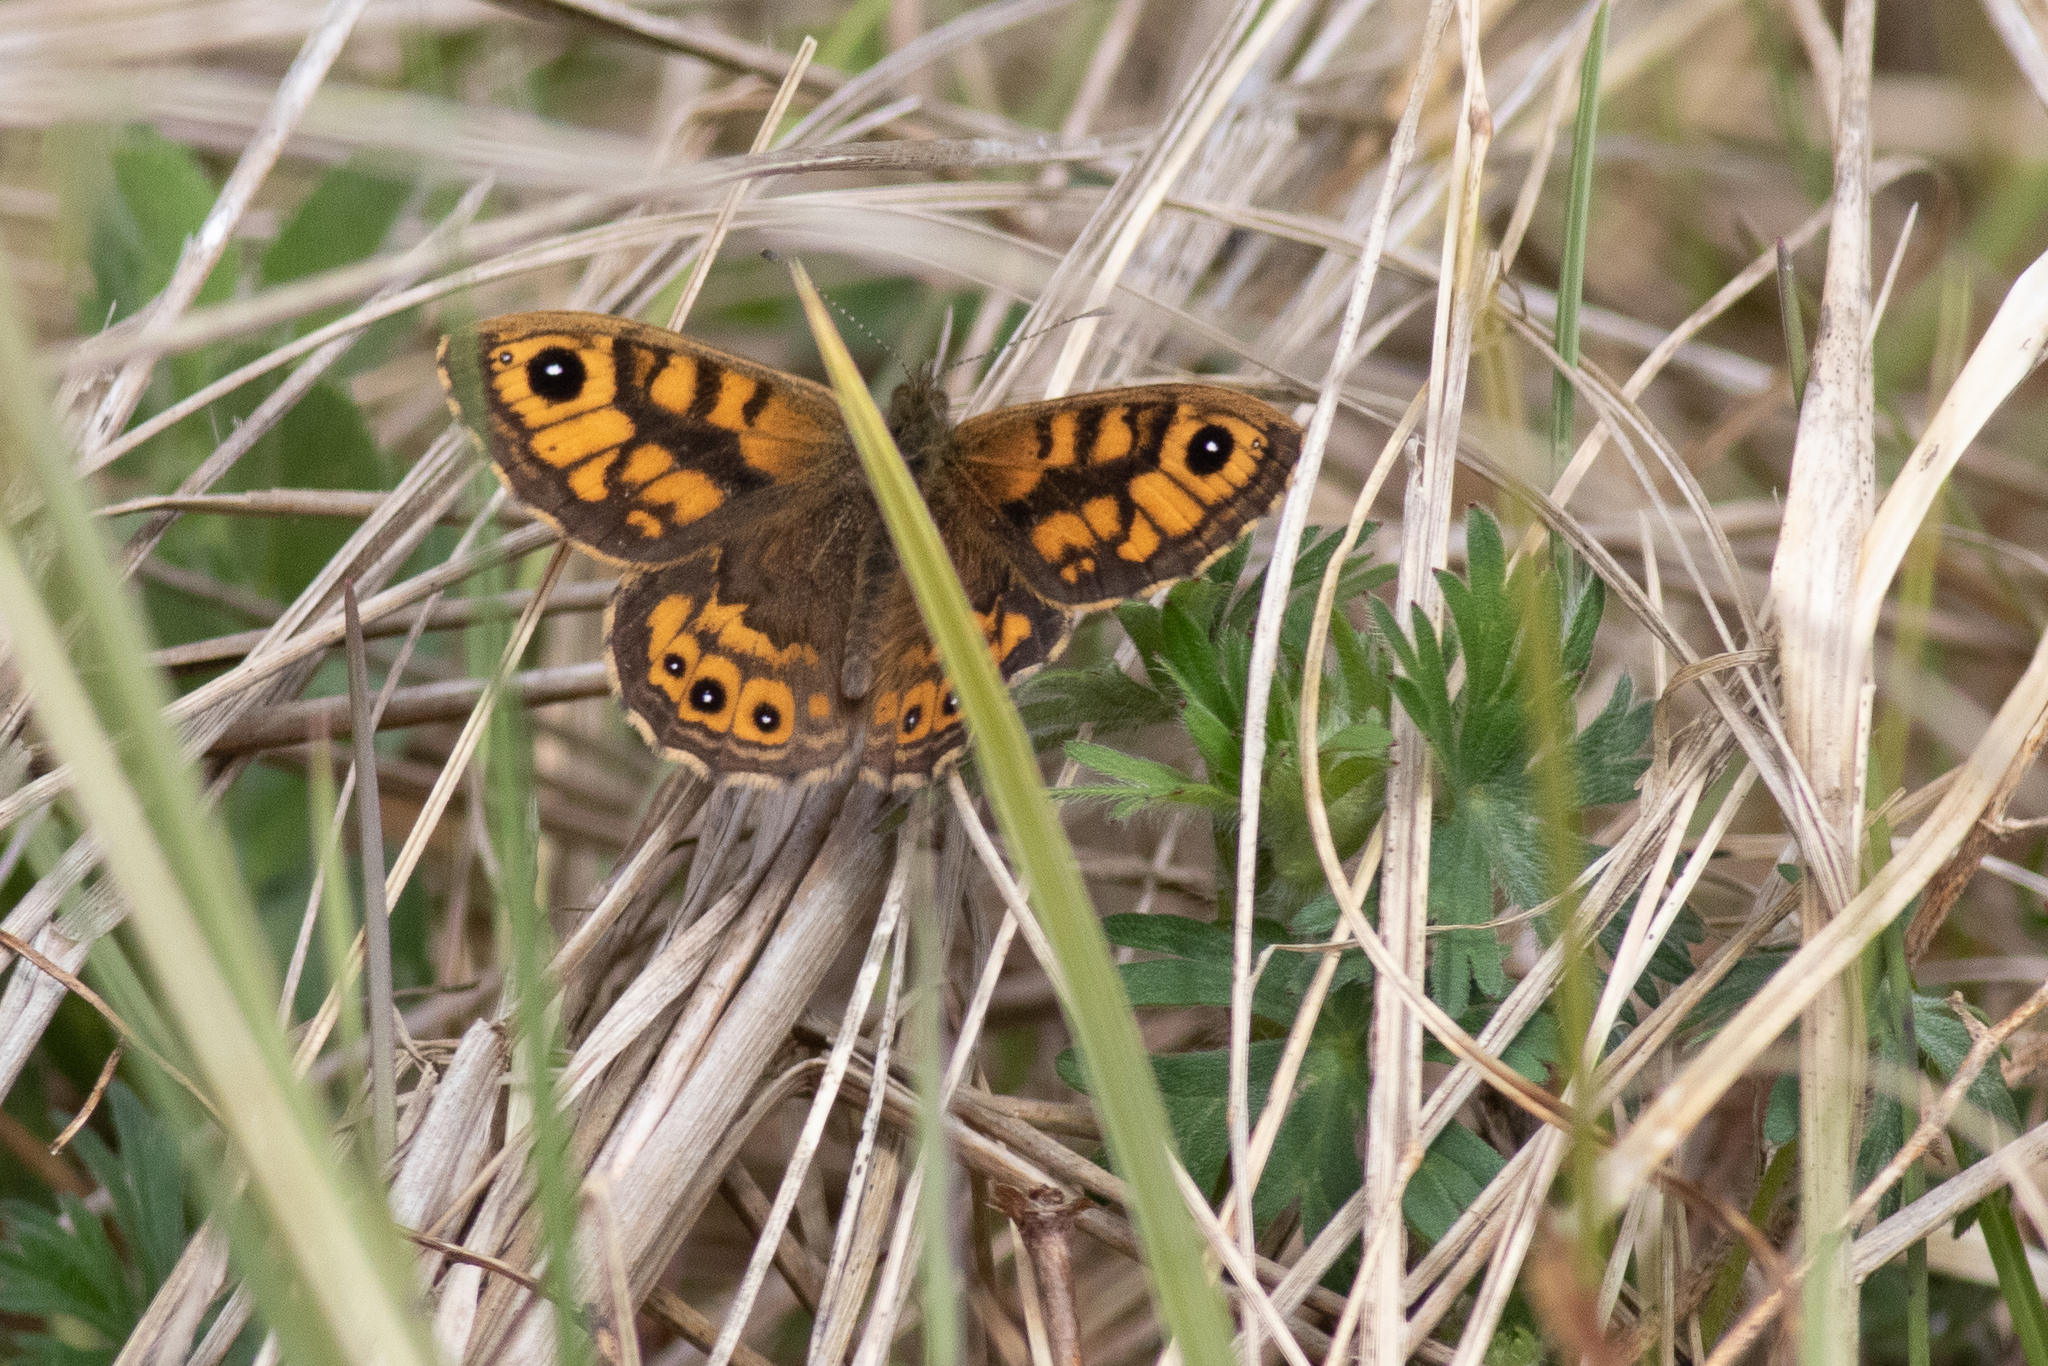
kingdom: Animalia
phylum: Arthropoda
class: Insecta
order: Lepidoptera
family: Nymphalidae
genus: Pararge
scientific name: Pararge Lasiommata megera
